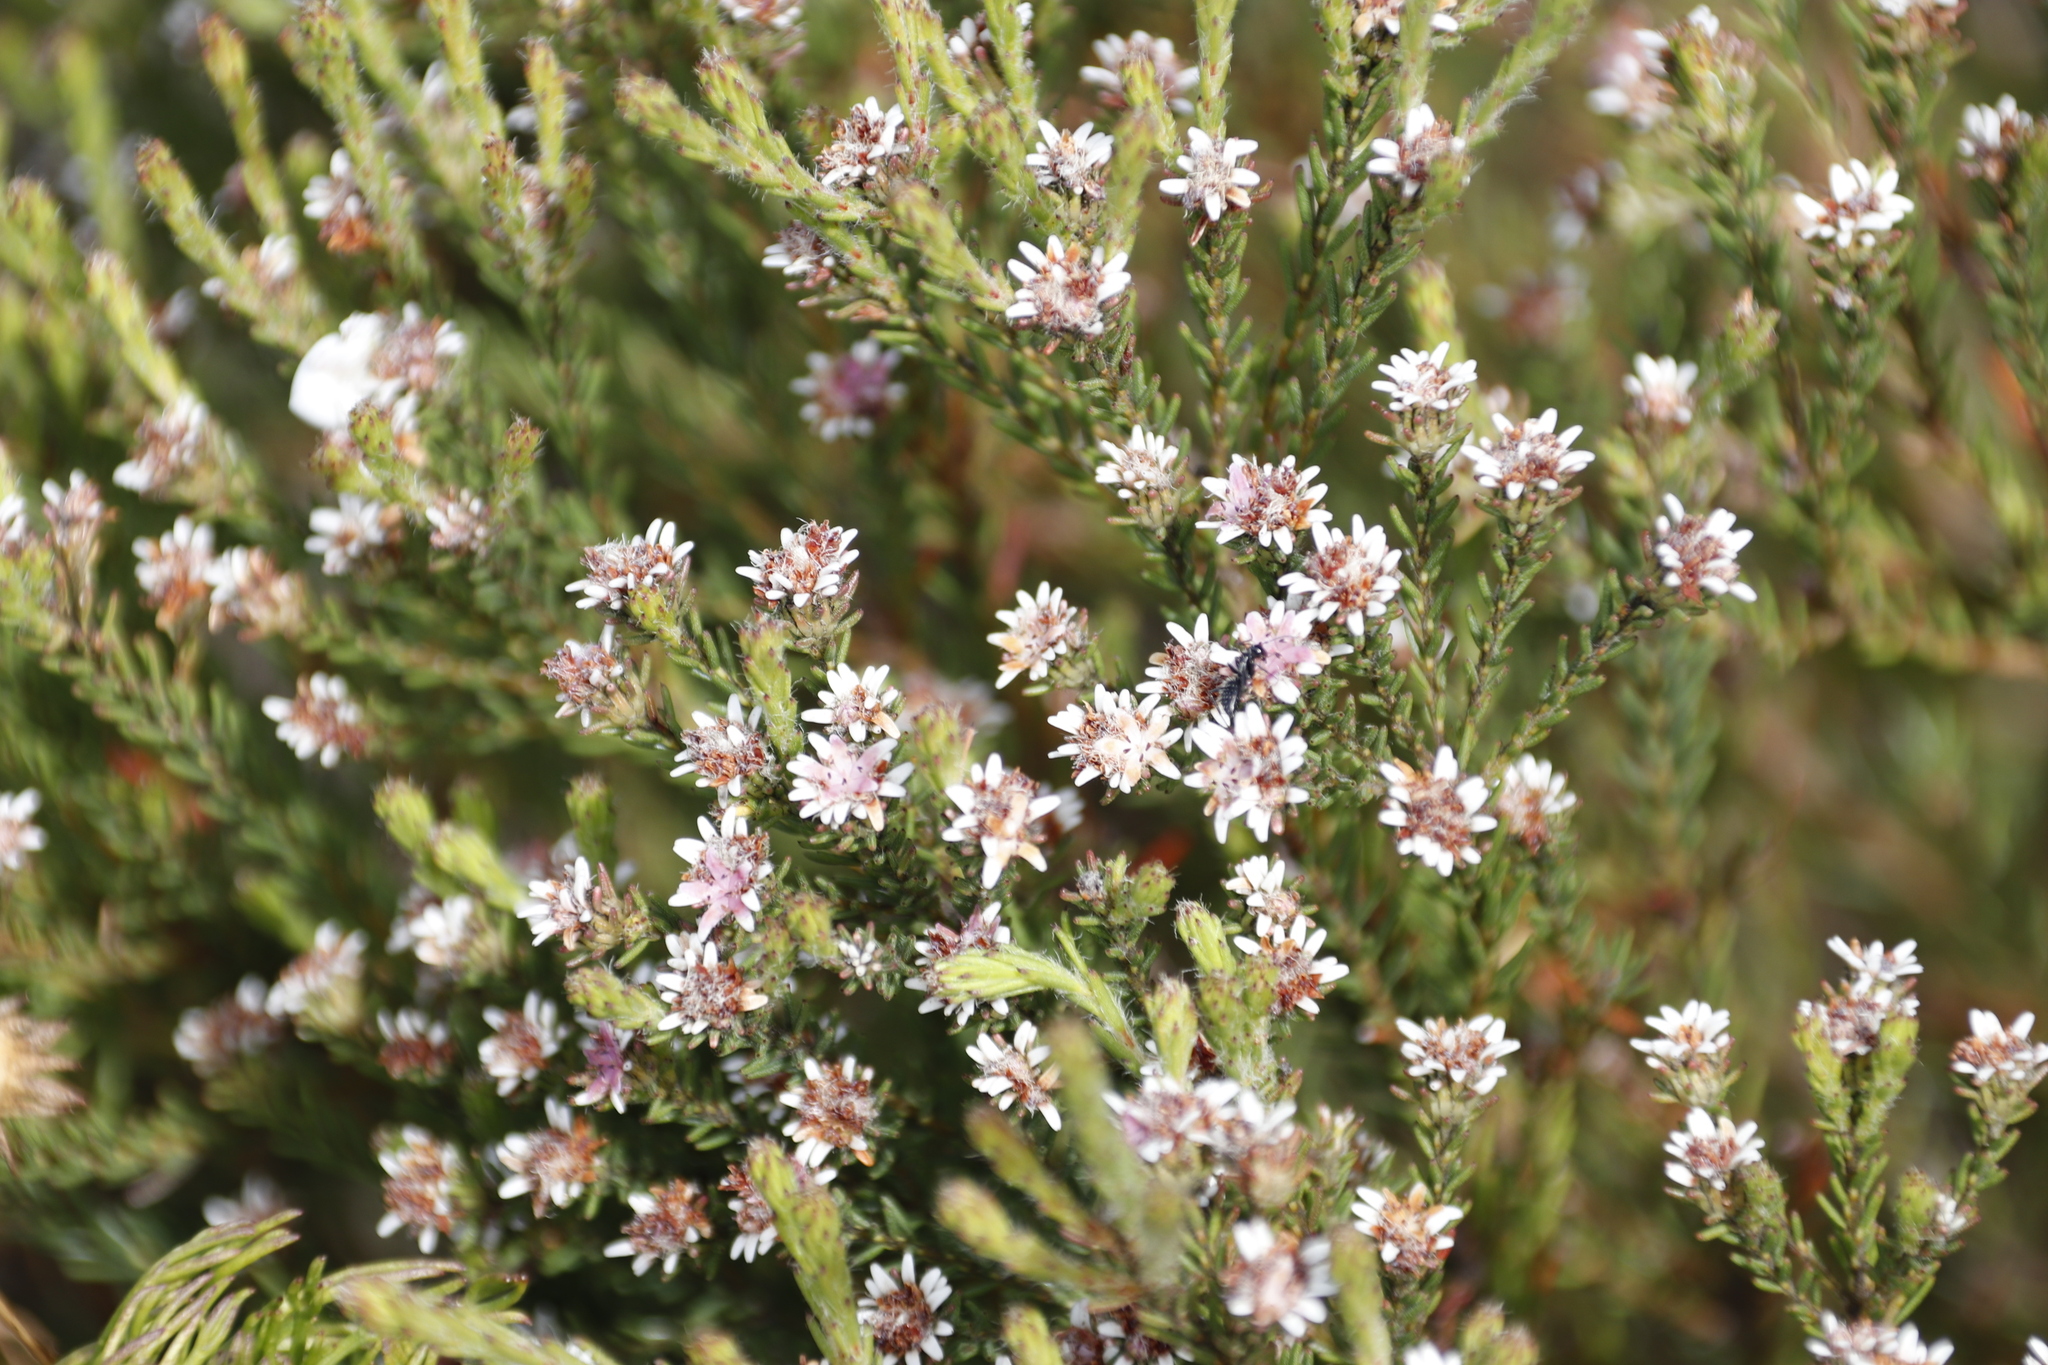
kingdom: Plantae
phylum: Tracheophyta
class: Magnoliopsida
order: Bruniales
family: Bruniaceae
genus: Staavia
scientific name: Staavia radiata
